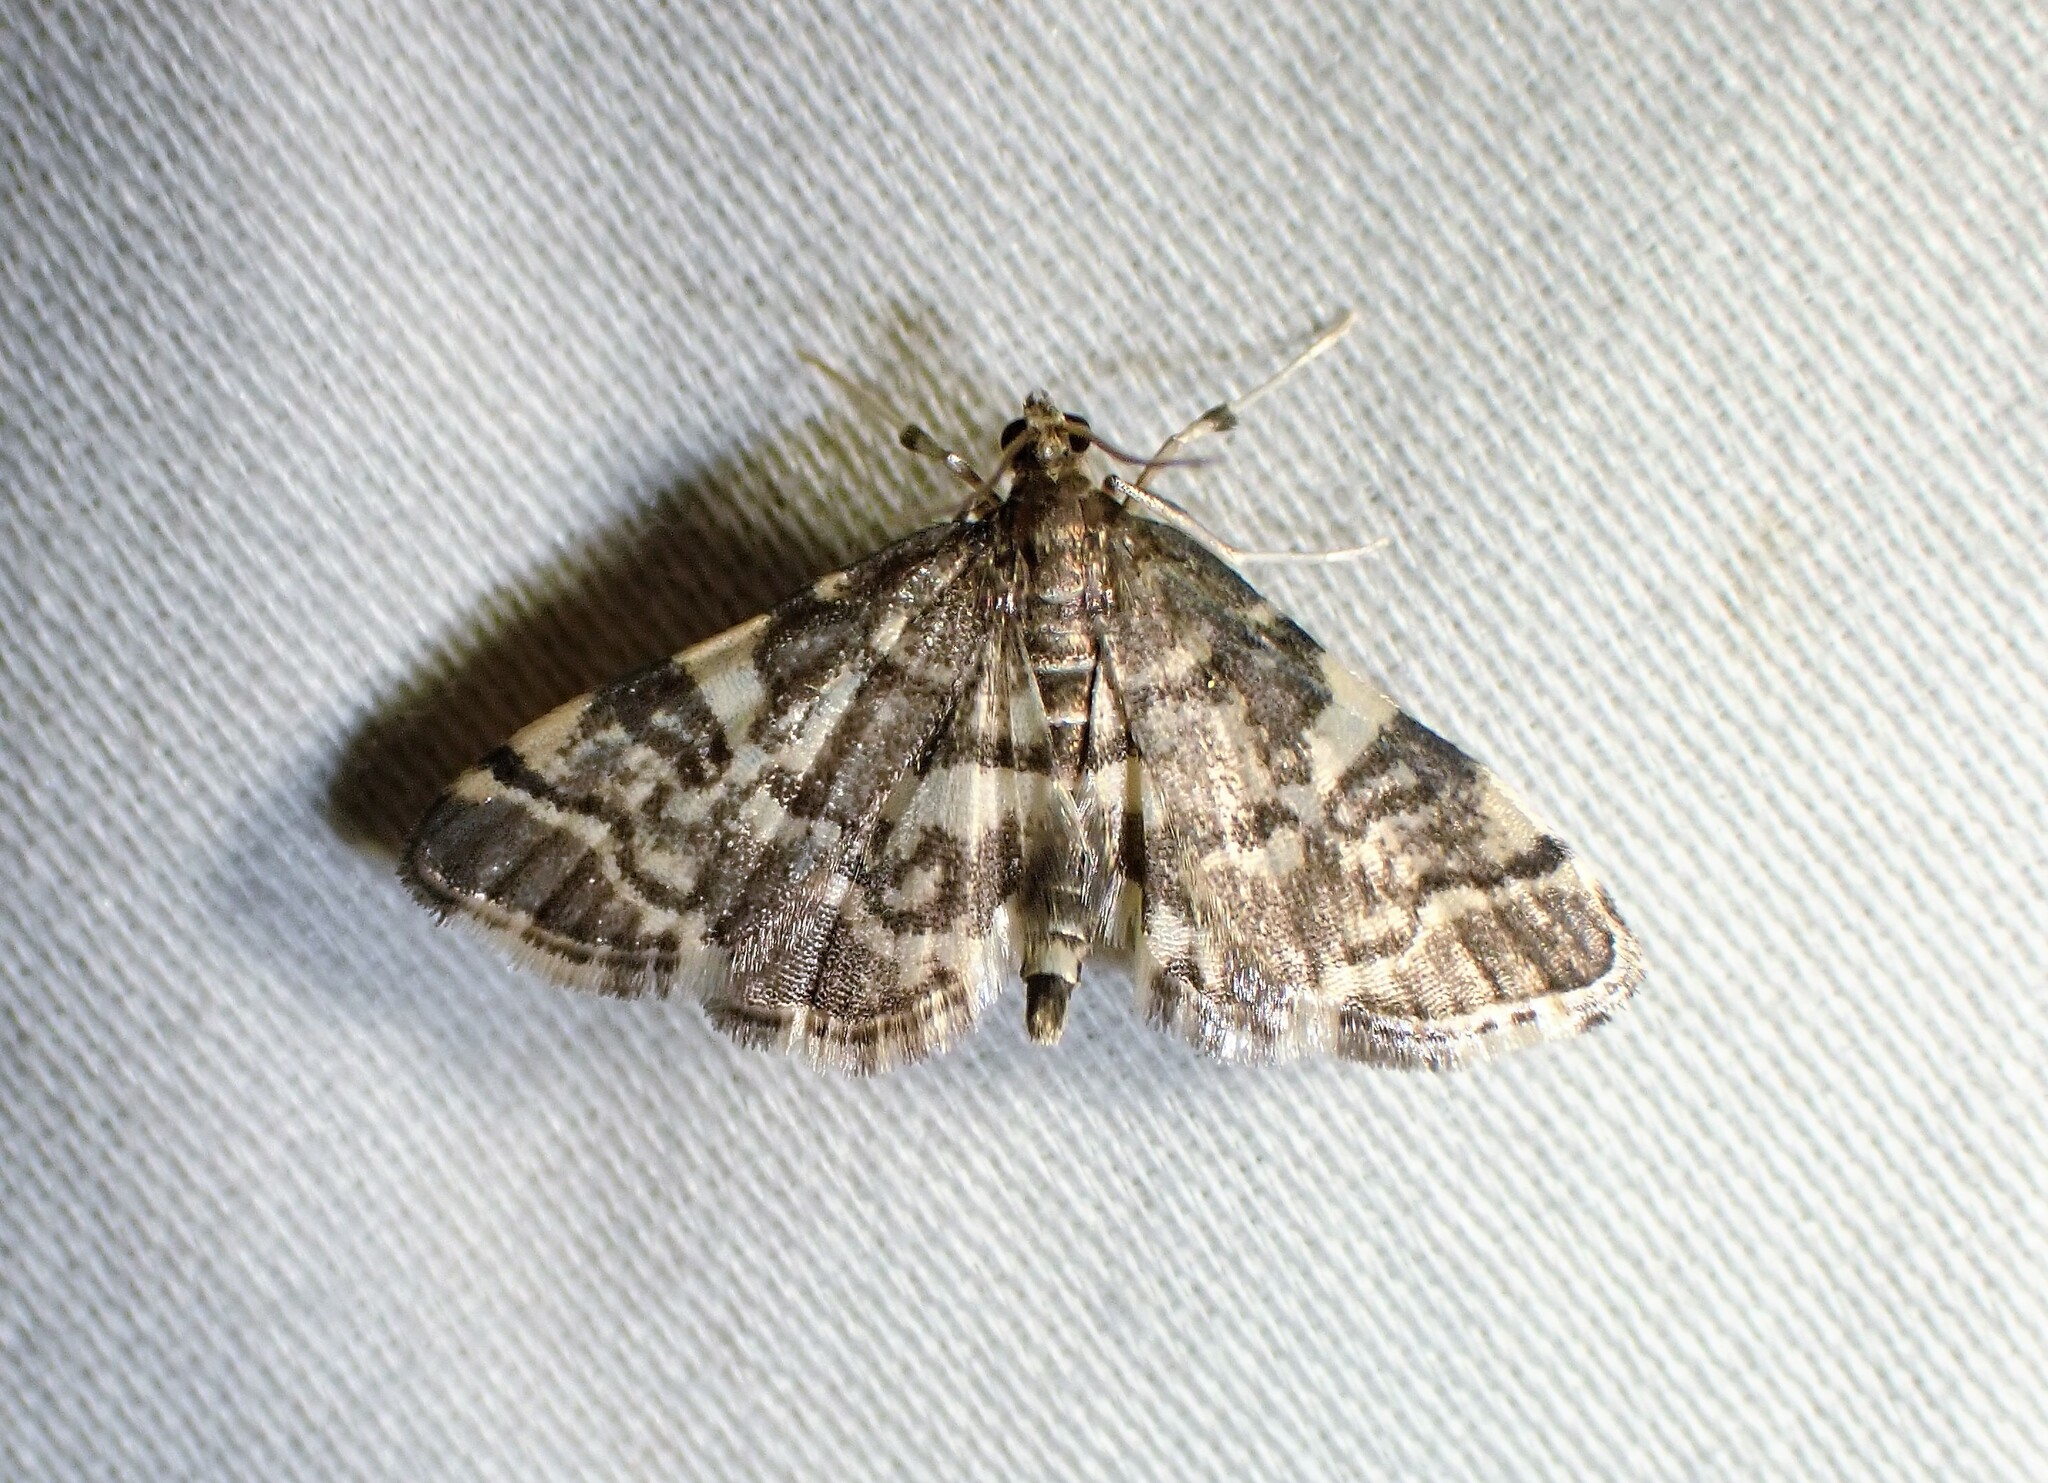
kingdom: Animalia
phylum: Arthropoda
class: Insecta
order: Lepidoptera
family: Crambidae
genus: Anageshna
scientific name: Anageshna primordialis
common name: Yellow-spotted webworm moth
